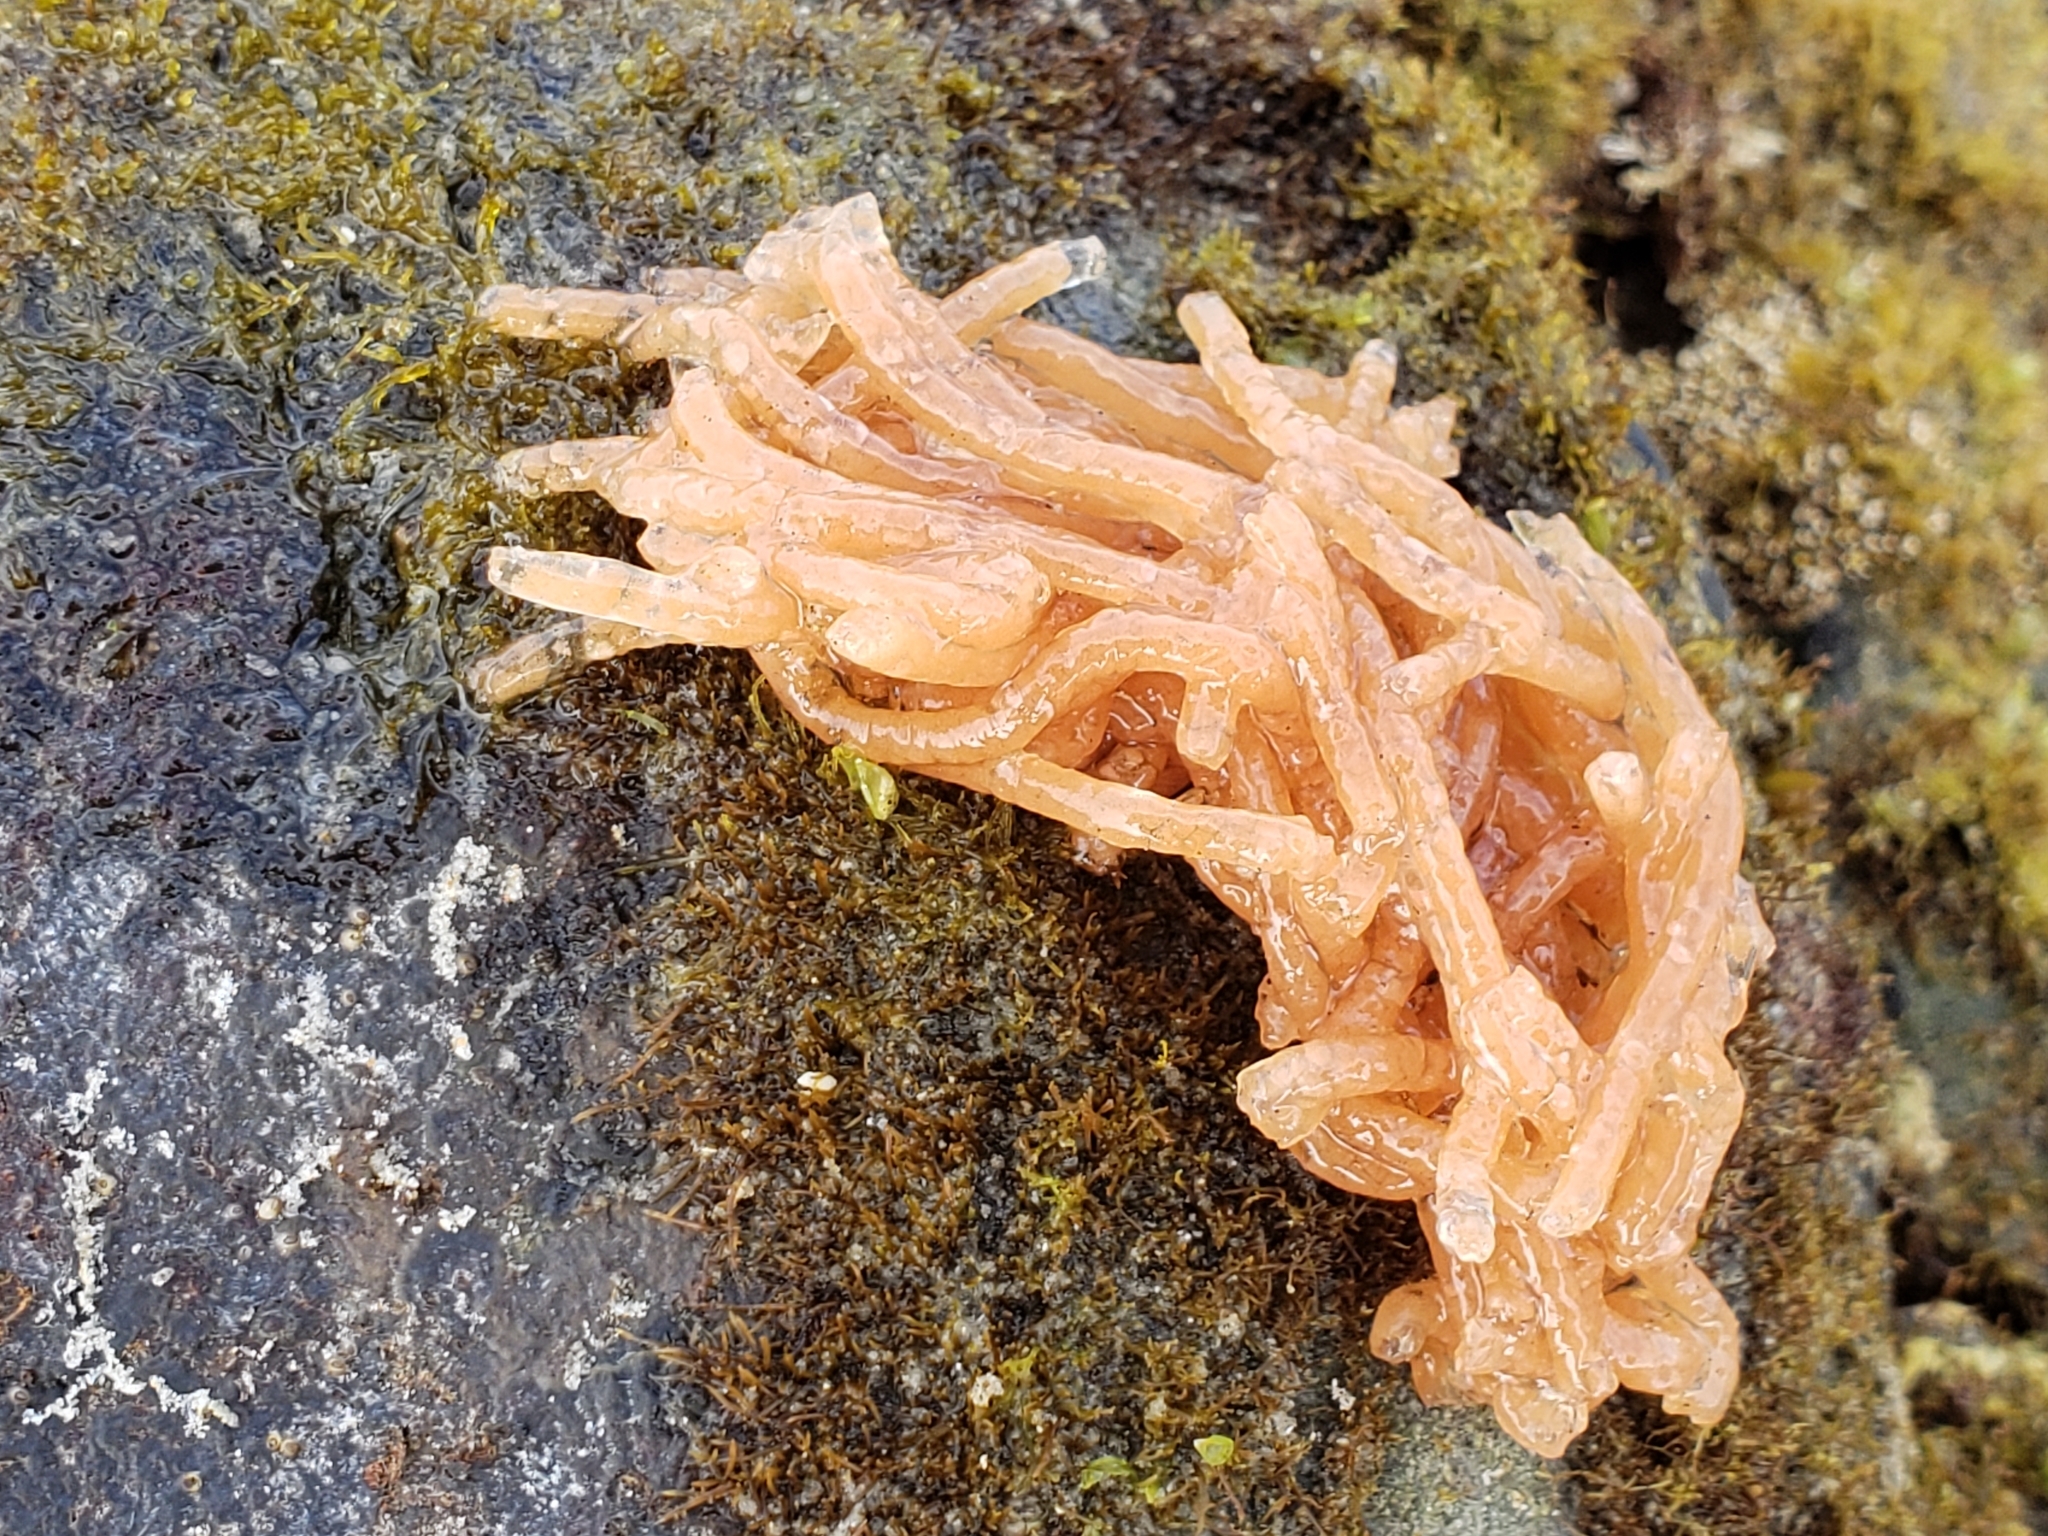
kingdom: Animalia
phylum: Mollusca
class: Gastropoda
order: Aplysiida
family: Aplysiidae
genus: Aplysia
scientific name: Aplysia vaccaria
